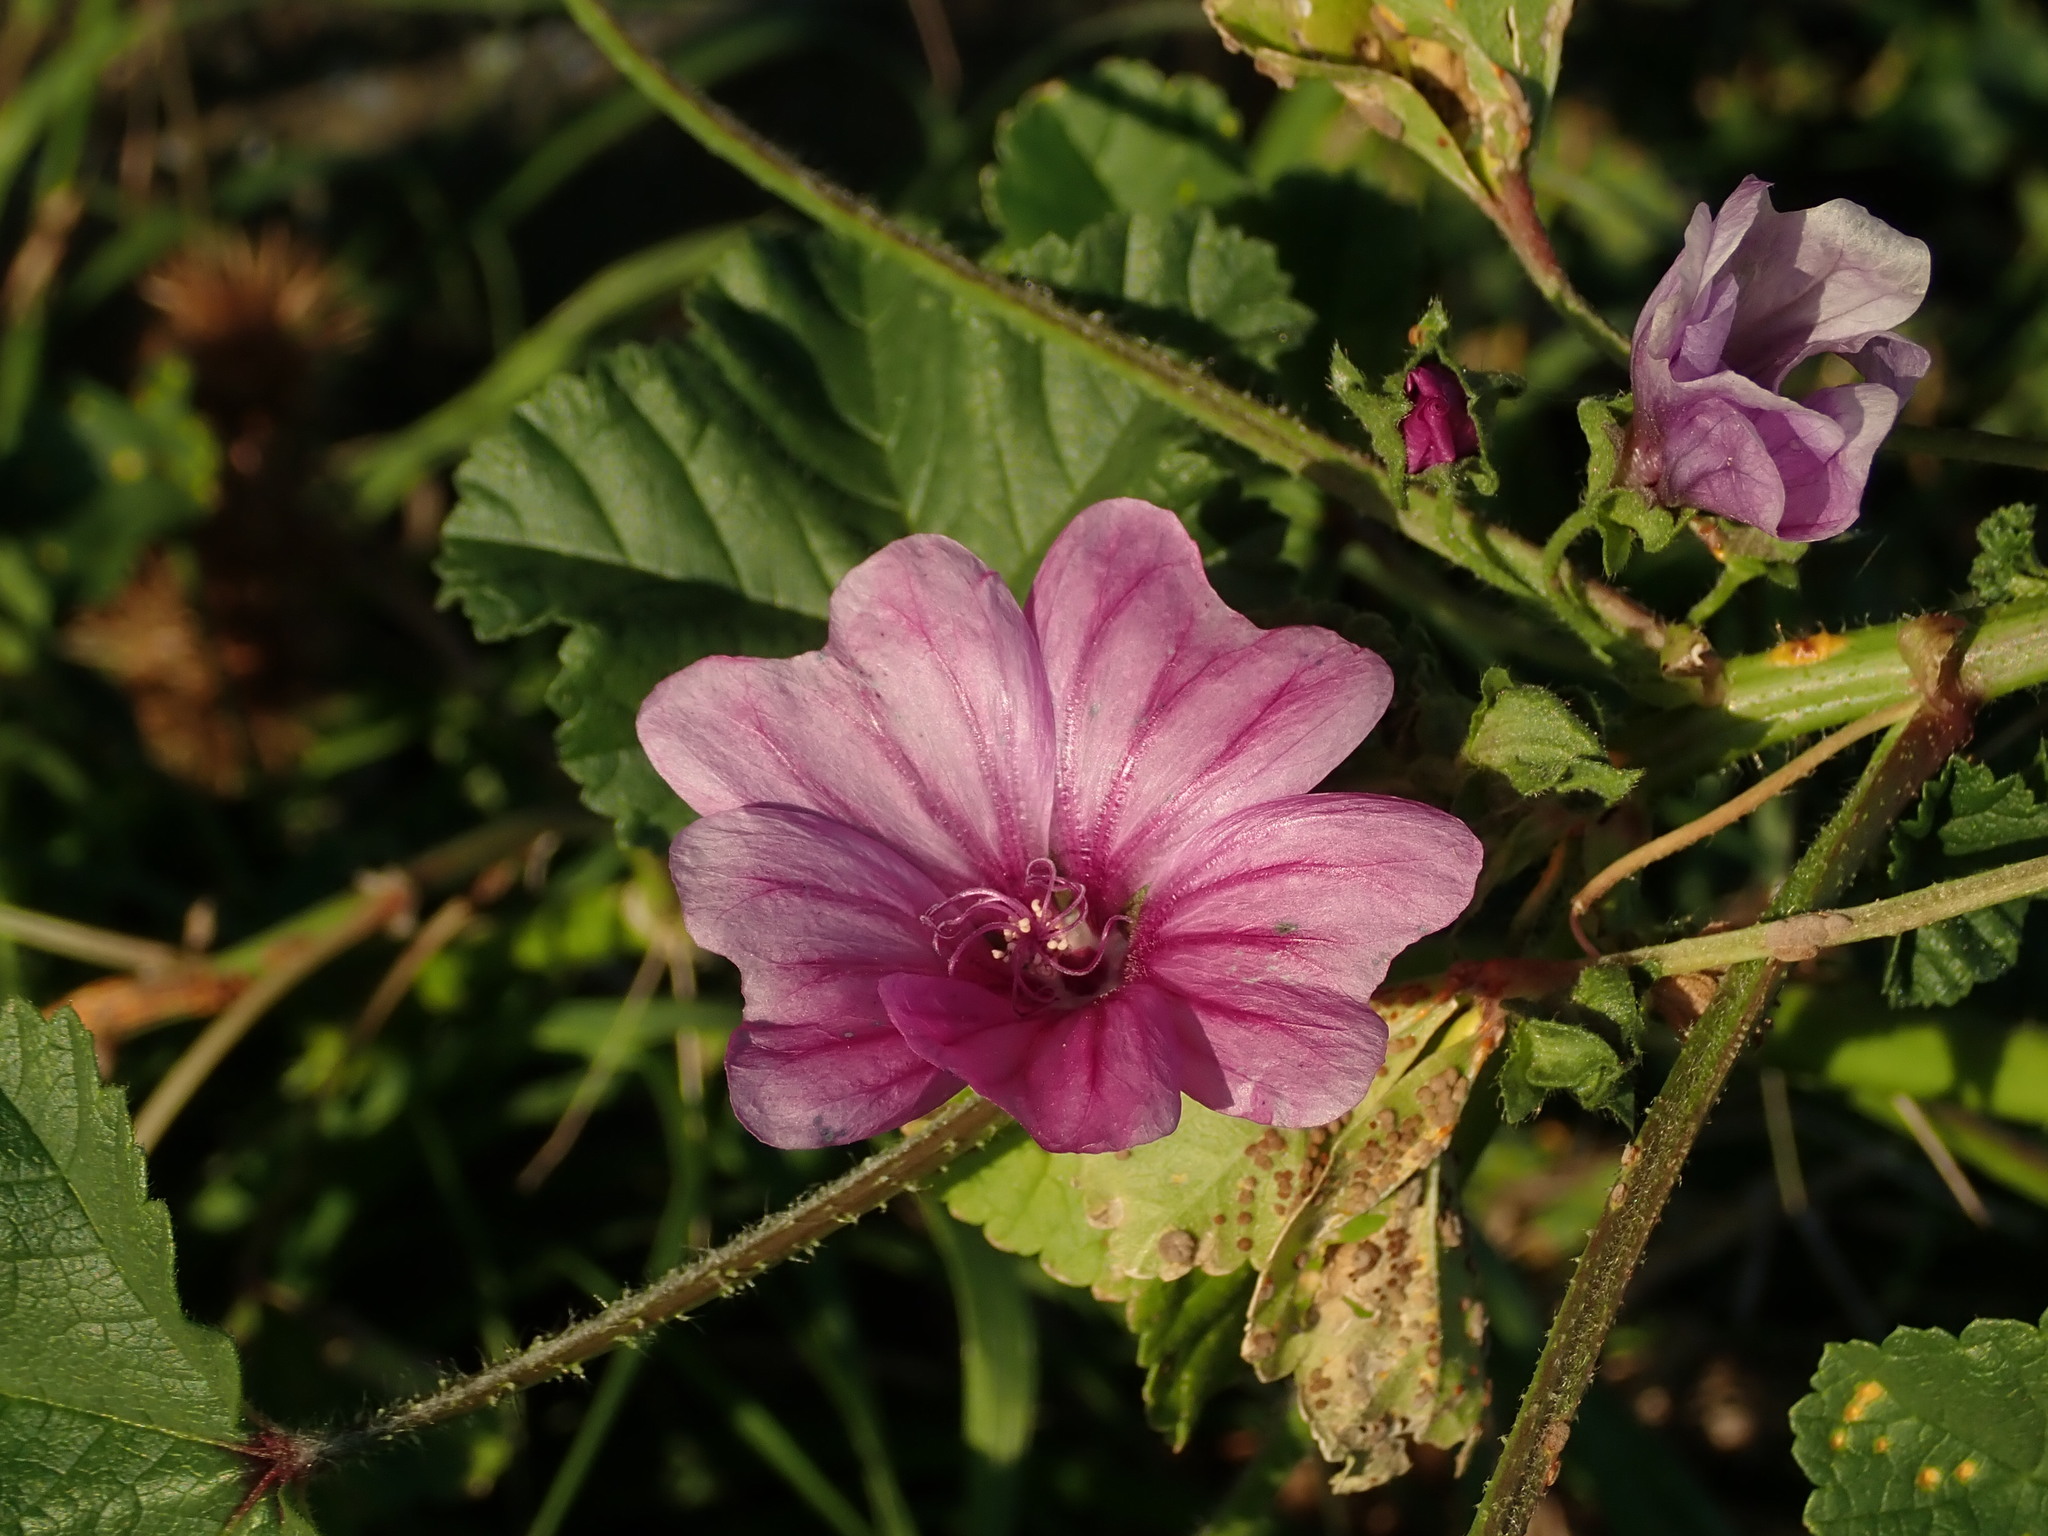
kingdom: Plantae
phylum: Tracheophyta
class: Magnoliopsida
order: Malvales
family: Malvaceae
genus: Malva
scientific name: Malva sylvestris
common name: Common mallow
